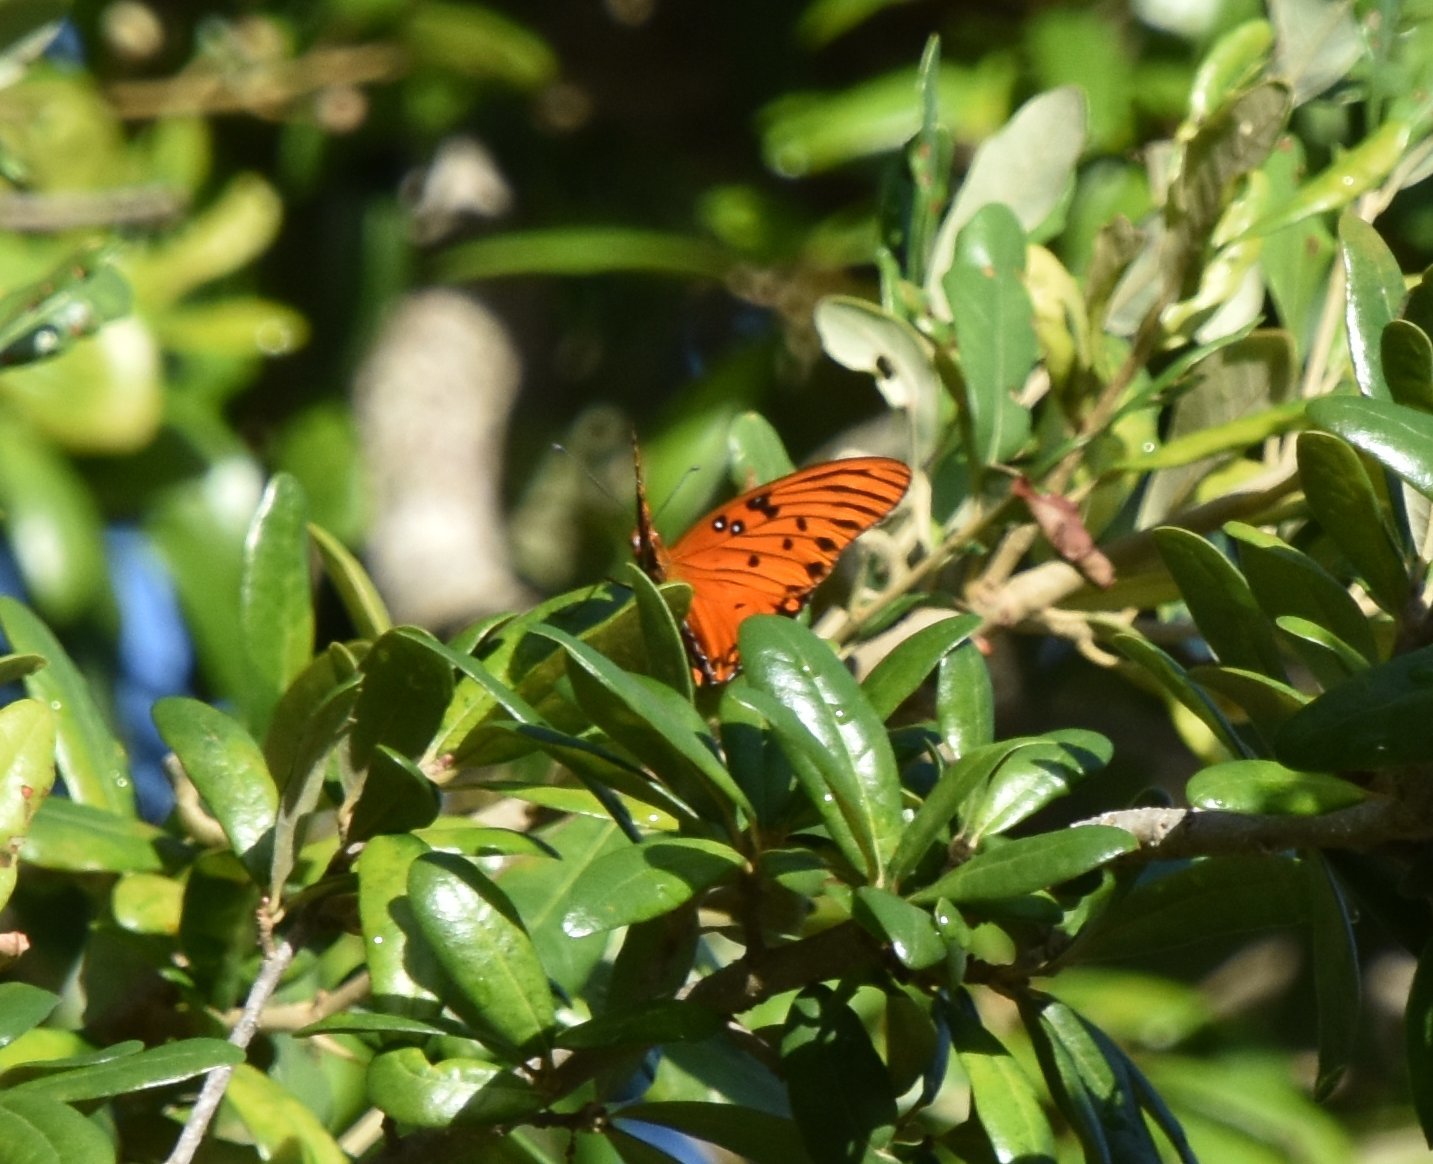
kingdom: Animalia
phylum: Arthropoda
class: Insecta
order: Lepidoptera
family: Nymphalidae
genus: Dione
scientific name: Dione vanillae
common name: Gulf fritillary
